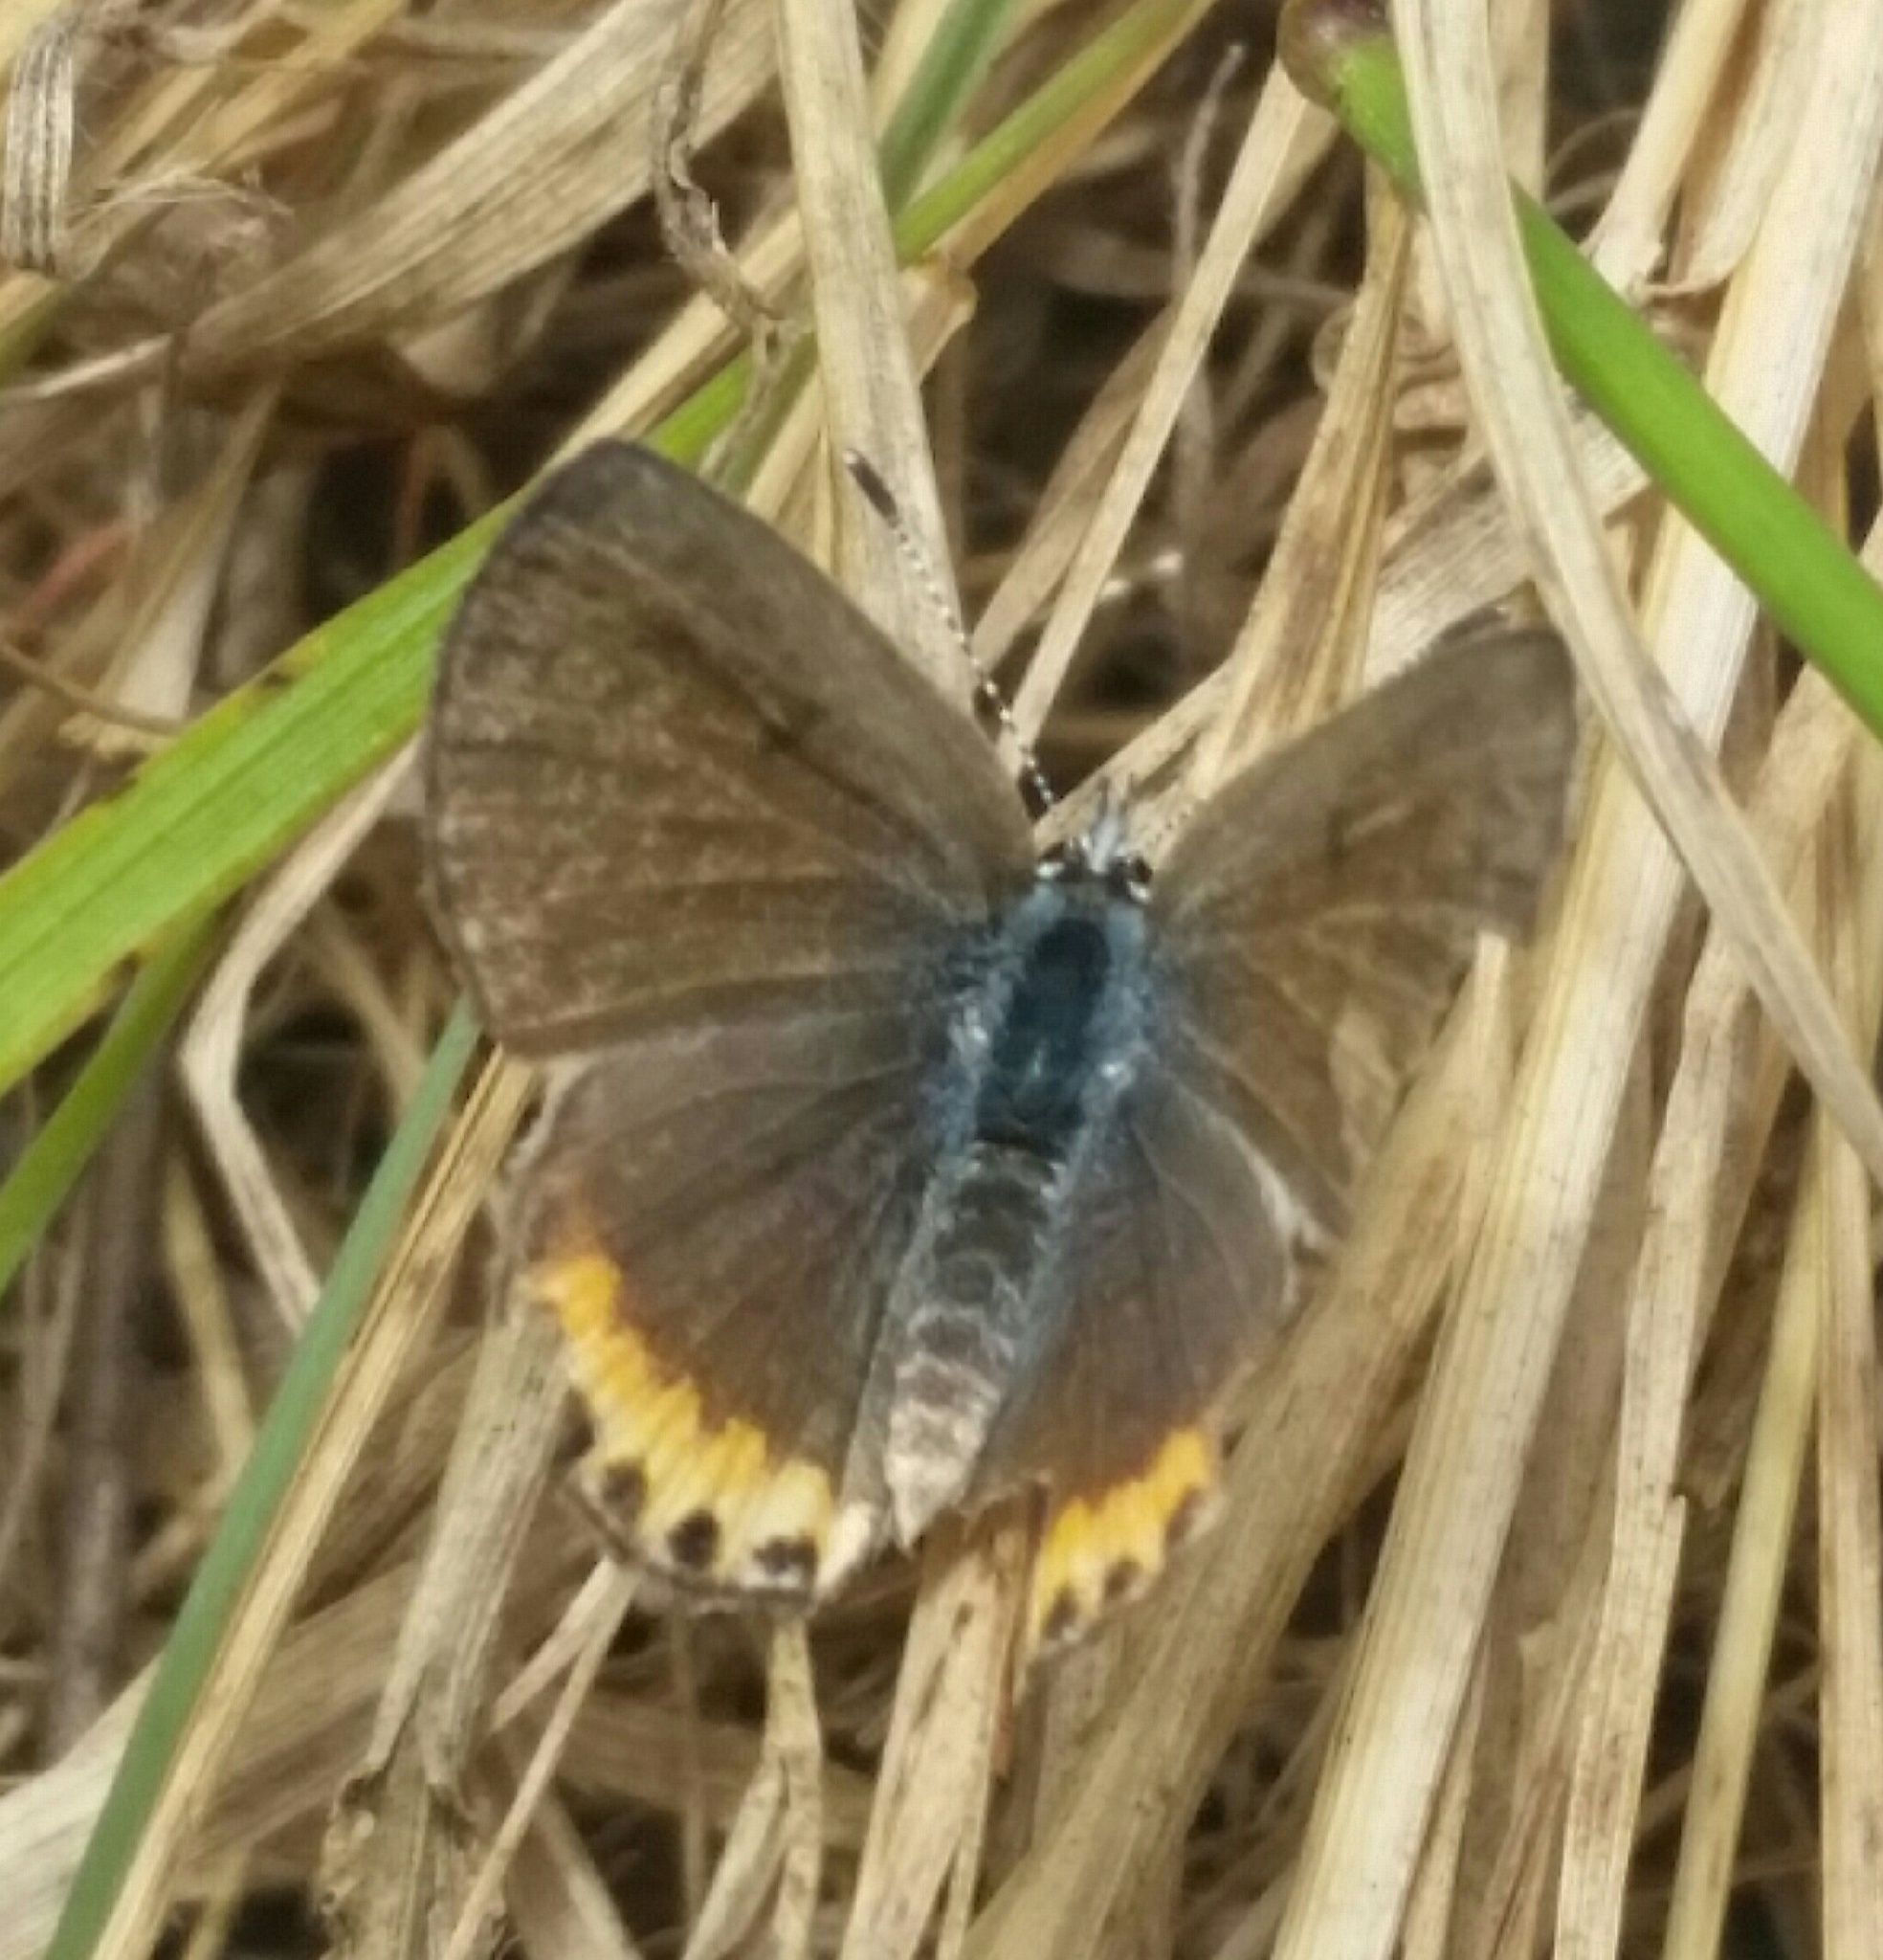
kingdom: Animalia
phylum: Arthropoda
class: Insecta
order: Lepidoptera
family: Lycaenidae
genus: Icaricia
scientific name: Icaricia acmon
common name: Acmon blue
